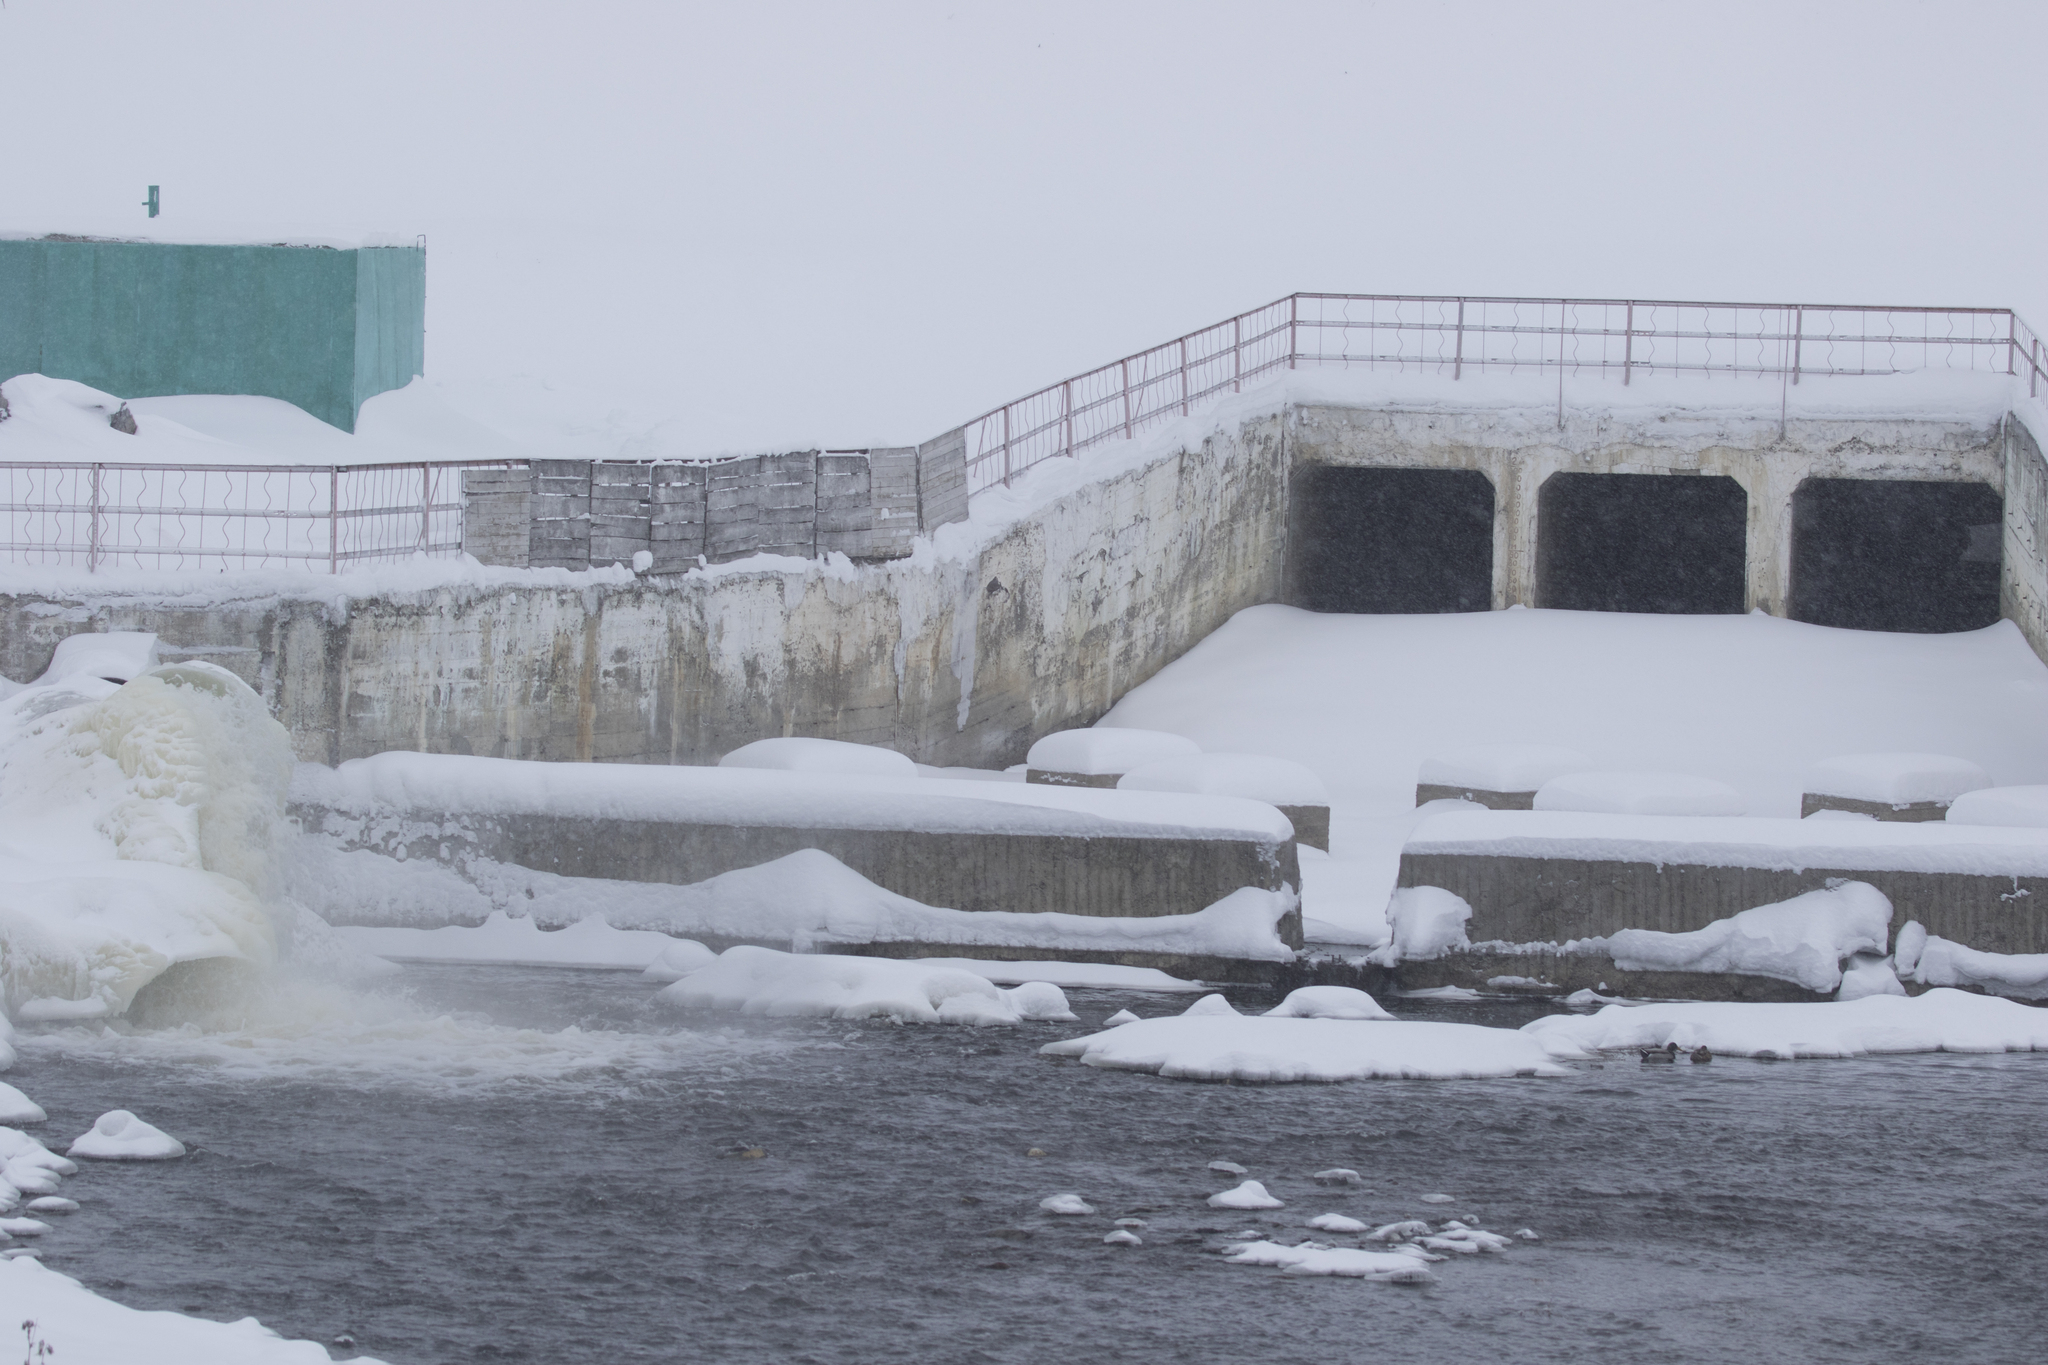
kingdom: Animalia
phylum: Chordata
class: Aves
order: Anseriformes
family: Anatidae
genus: Anas
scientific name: Anas platyrhynchos
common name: Mallard
